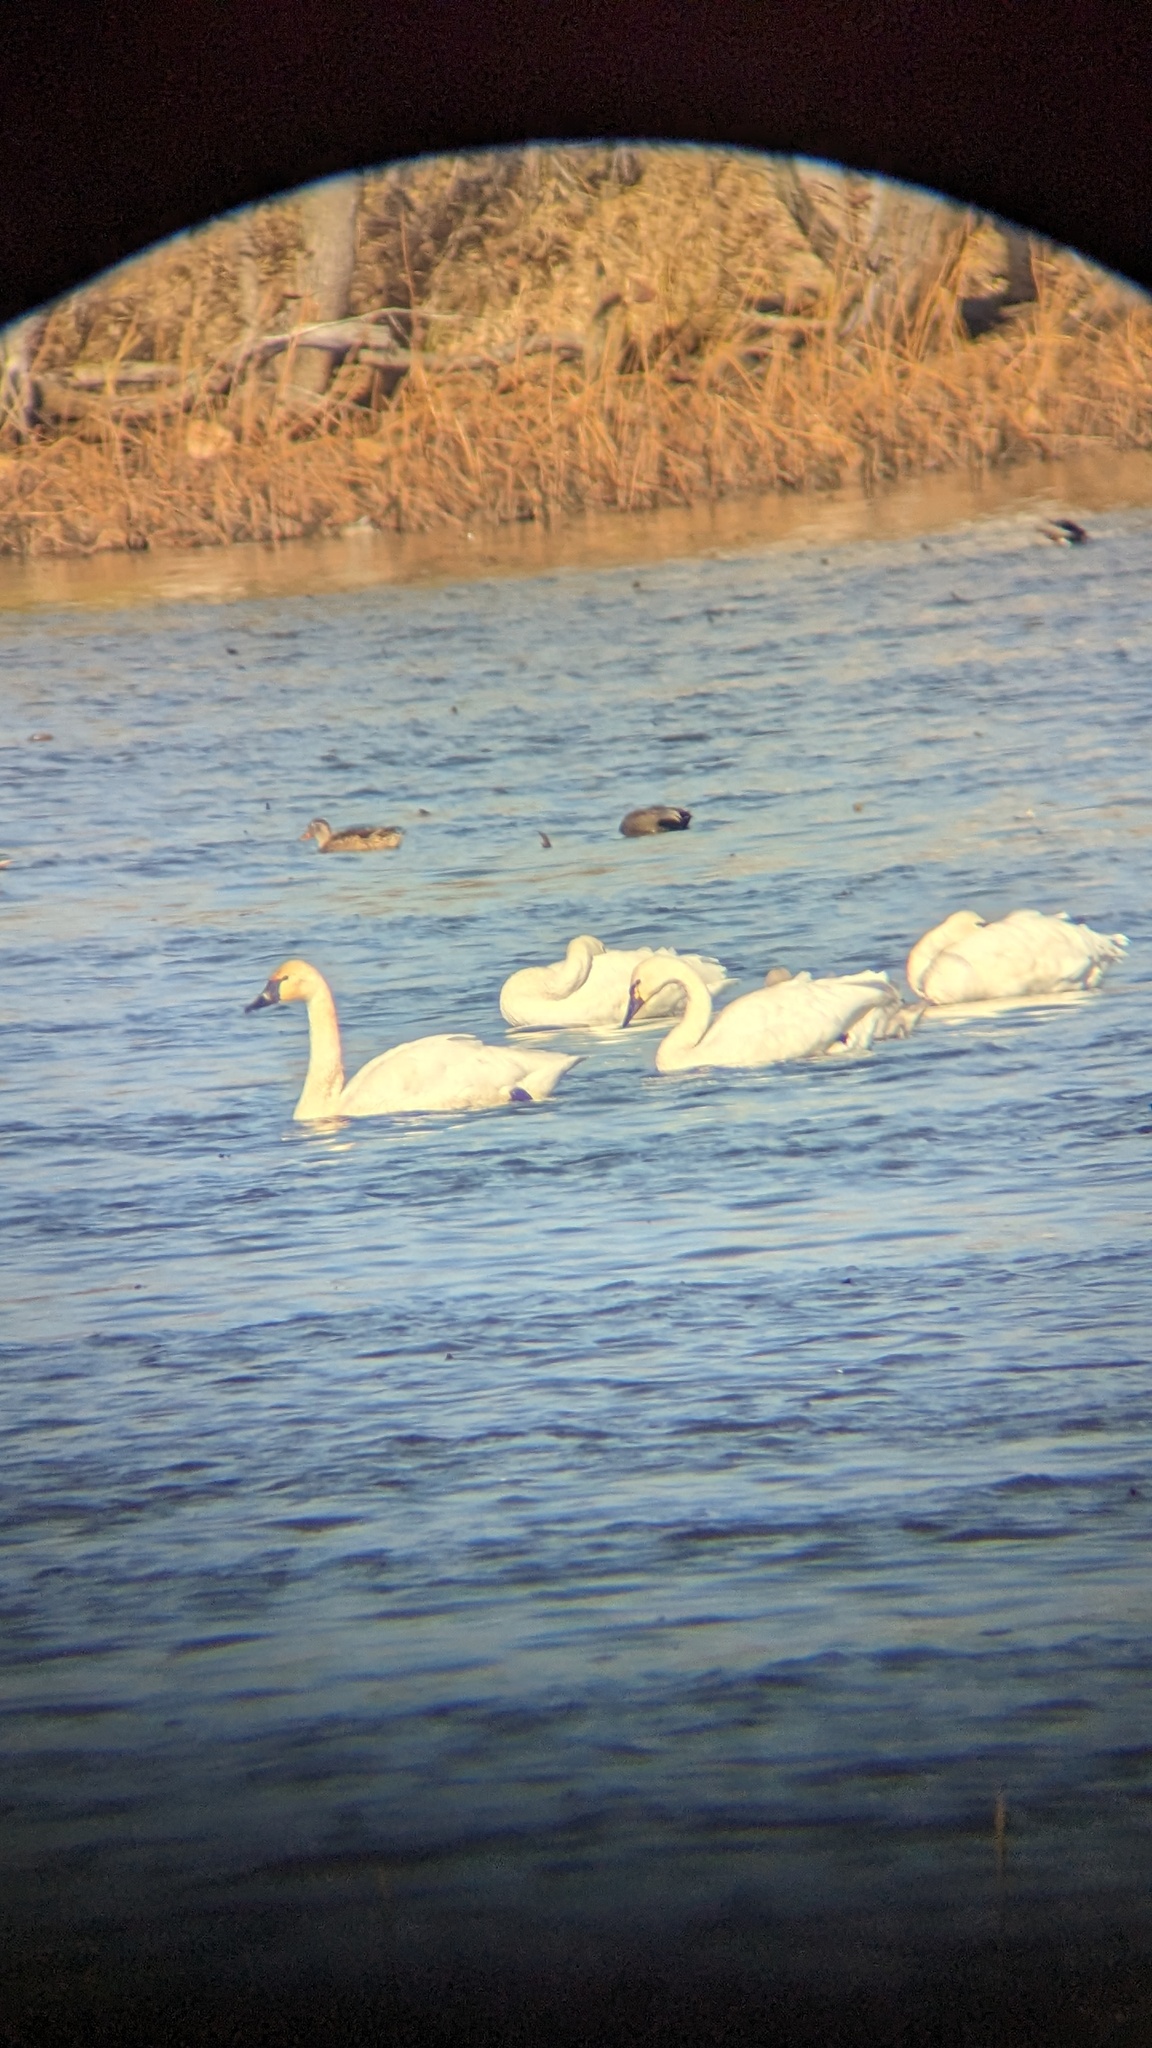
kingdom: Animalia
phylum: Chordata
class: Aves
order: Anseriformes
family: Anatidae
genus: Cygnus
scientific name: Cygnus columbianus
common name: Tundra swan
